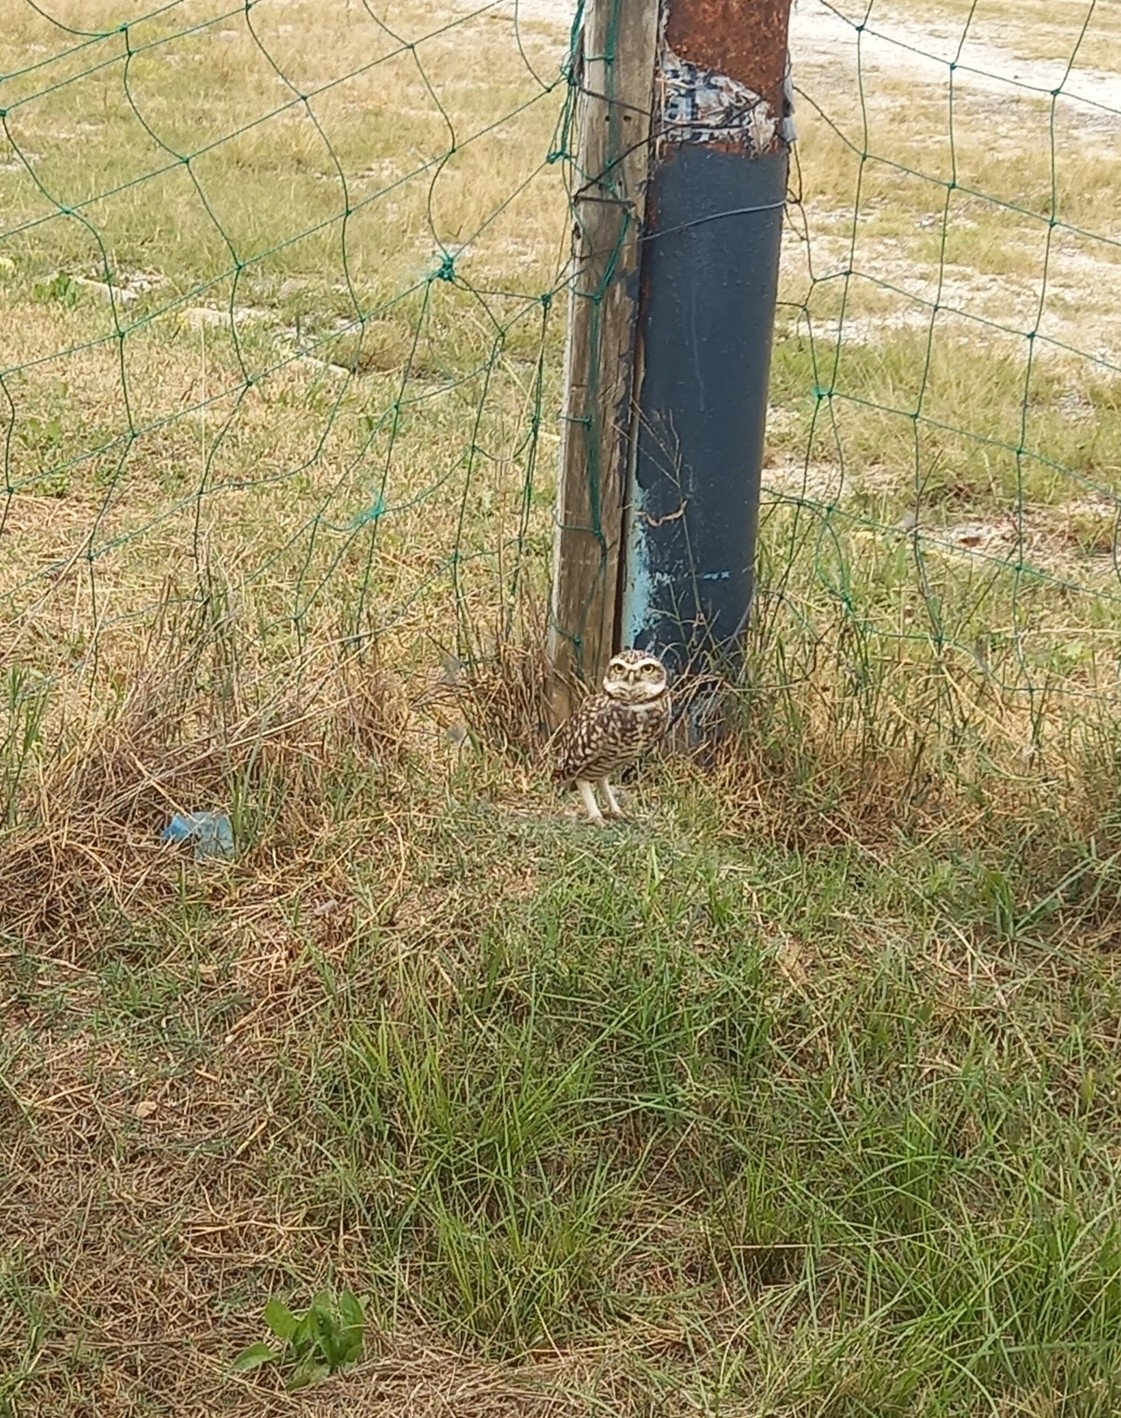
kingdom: Animalia
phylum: Chordata
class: Aves
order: Strigiformes
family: Strigidae
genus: Athene
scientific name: Athene cunicularia
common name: Burrowing owl
